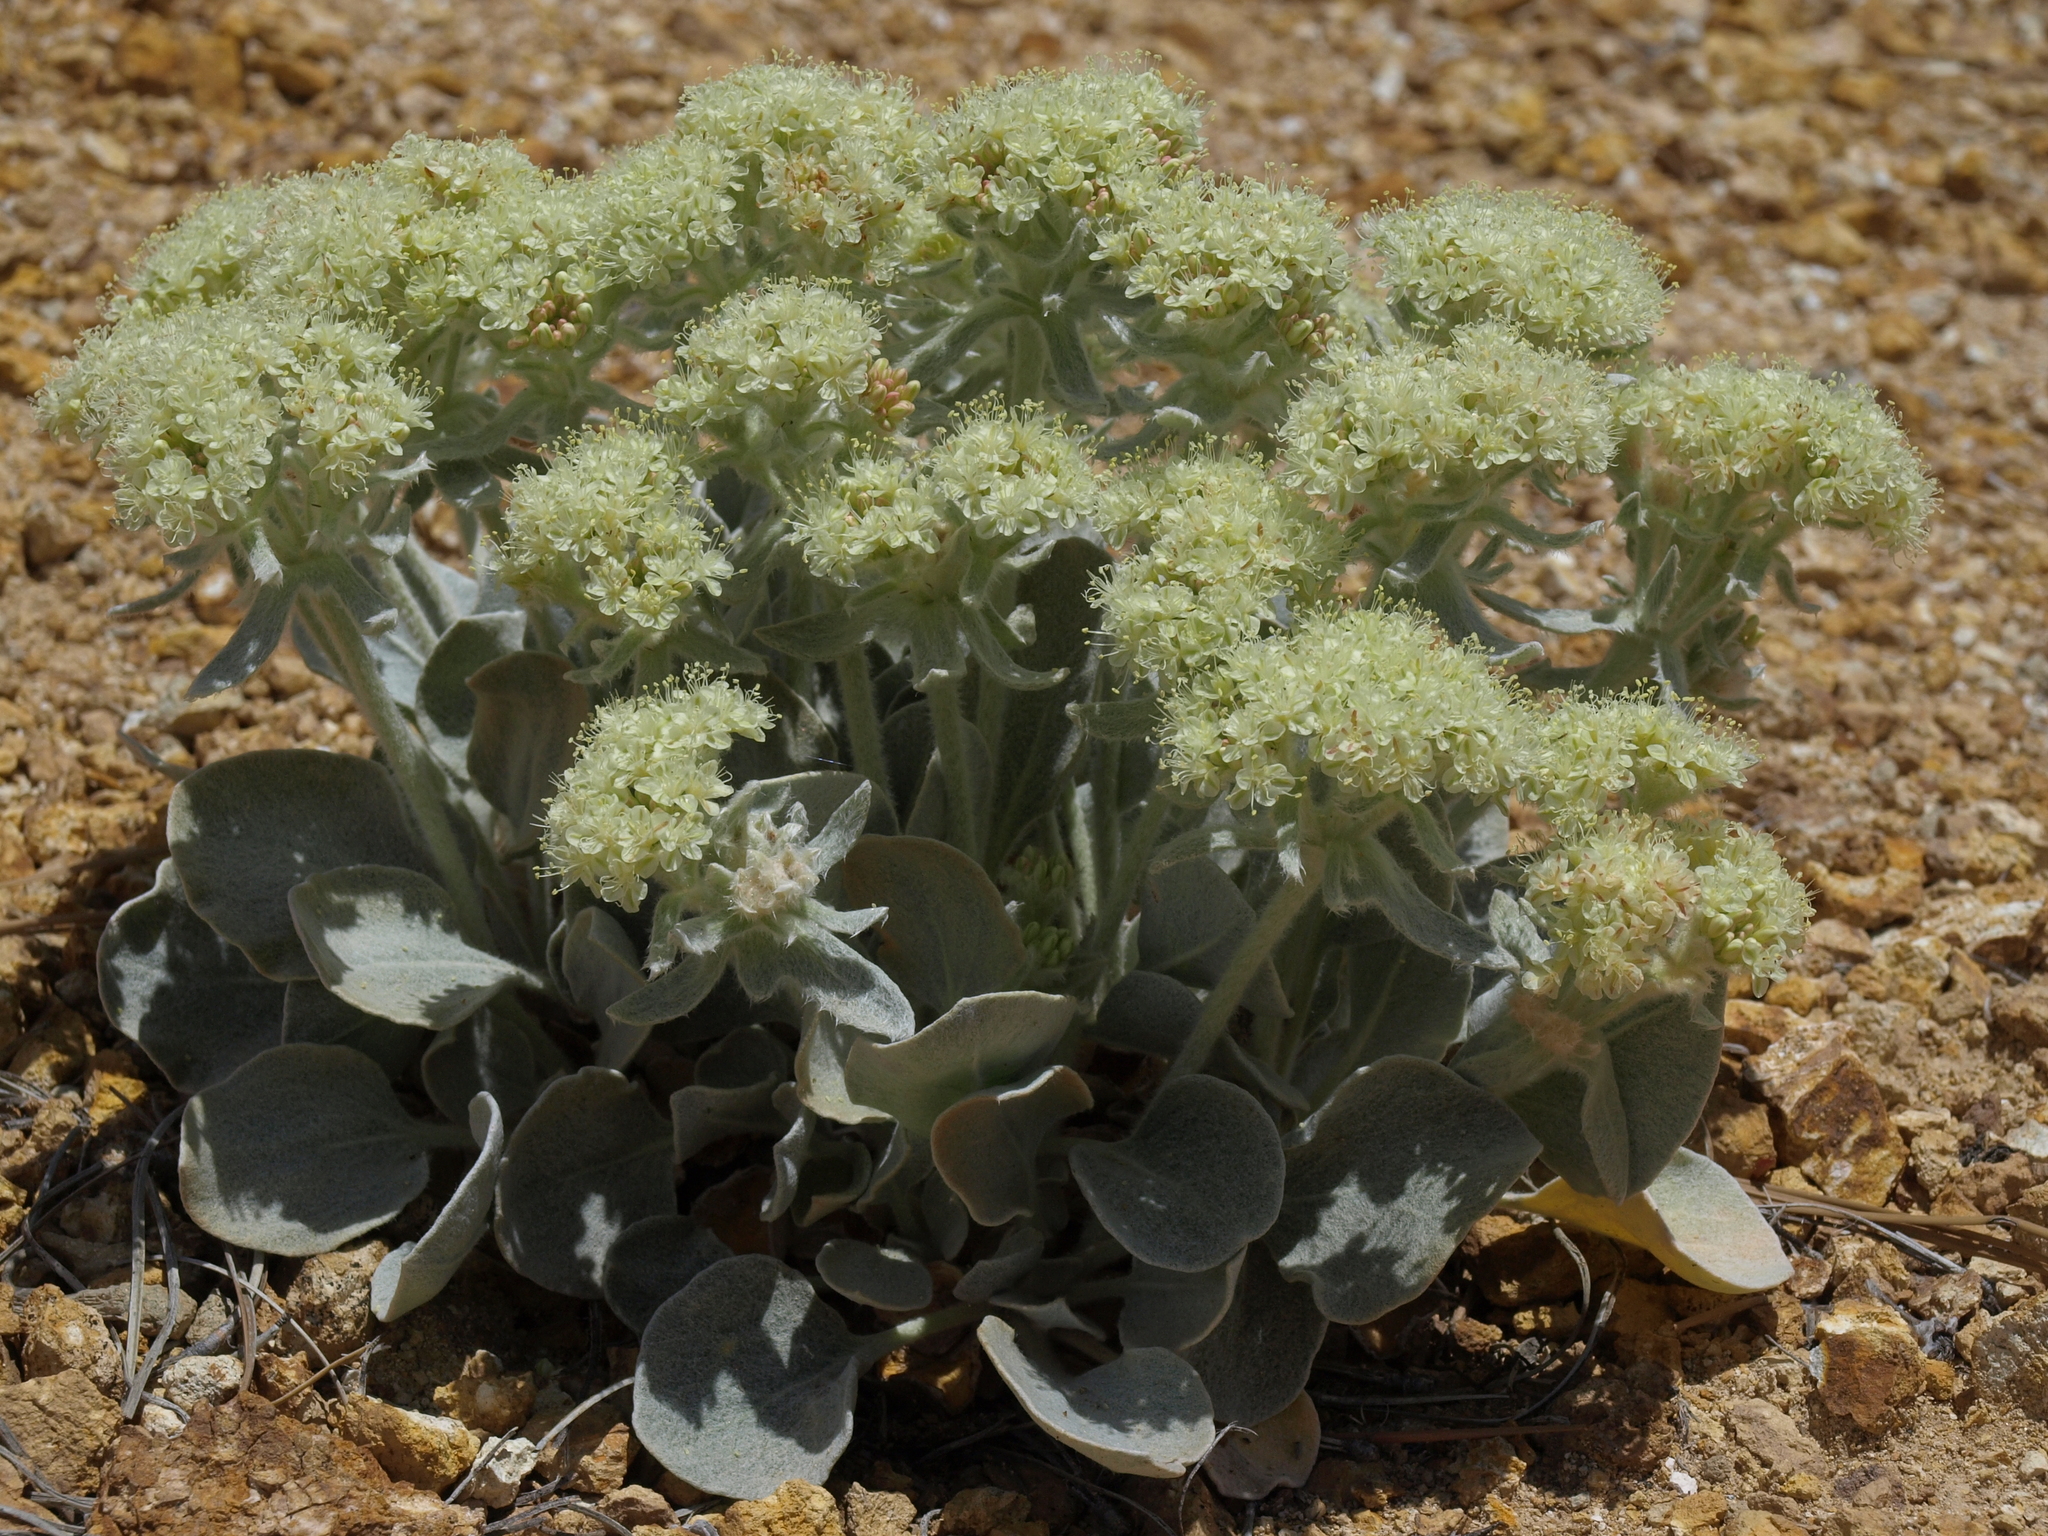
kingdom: Plantae
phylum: Tracheophyta
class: Magnoliopsida
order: Caryophyllales
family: Polygonaceae
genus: Eriogonum
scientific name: Eriogonum robustum
